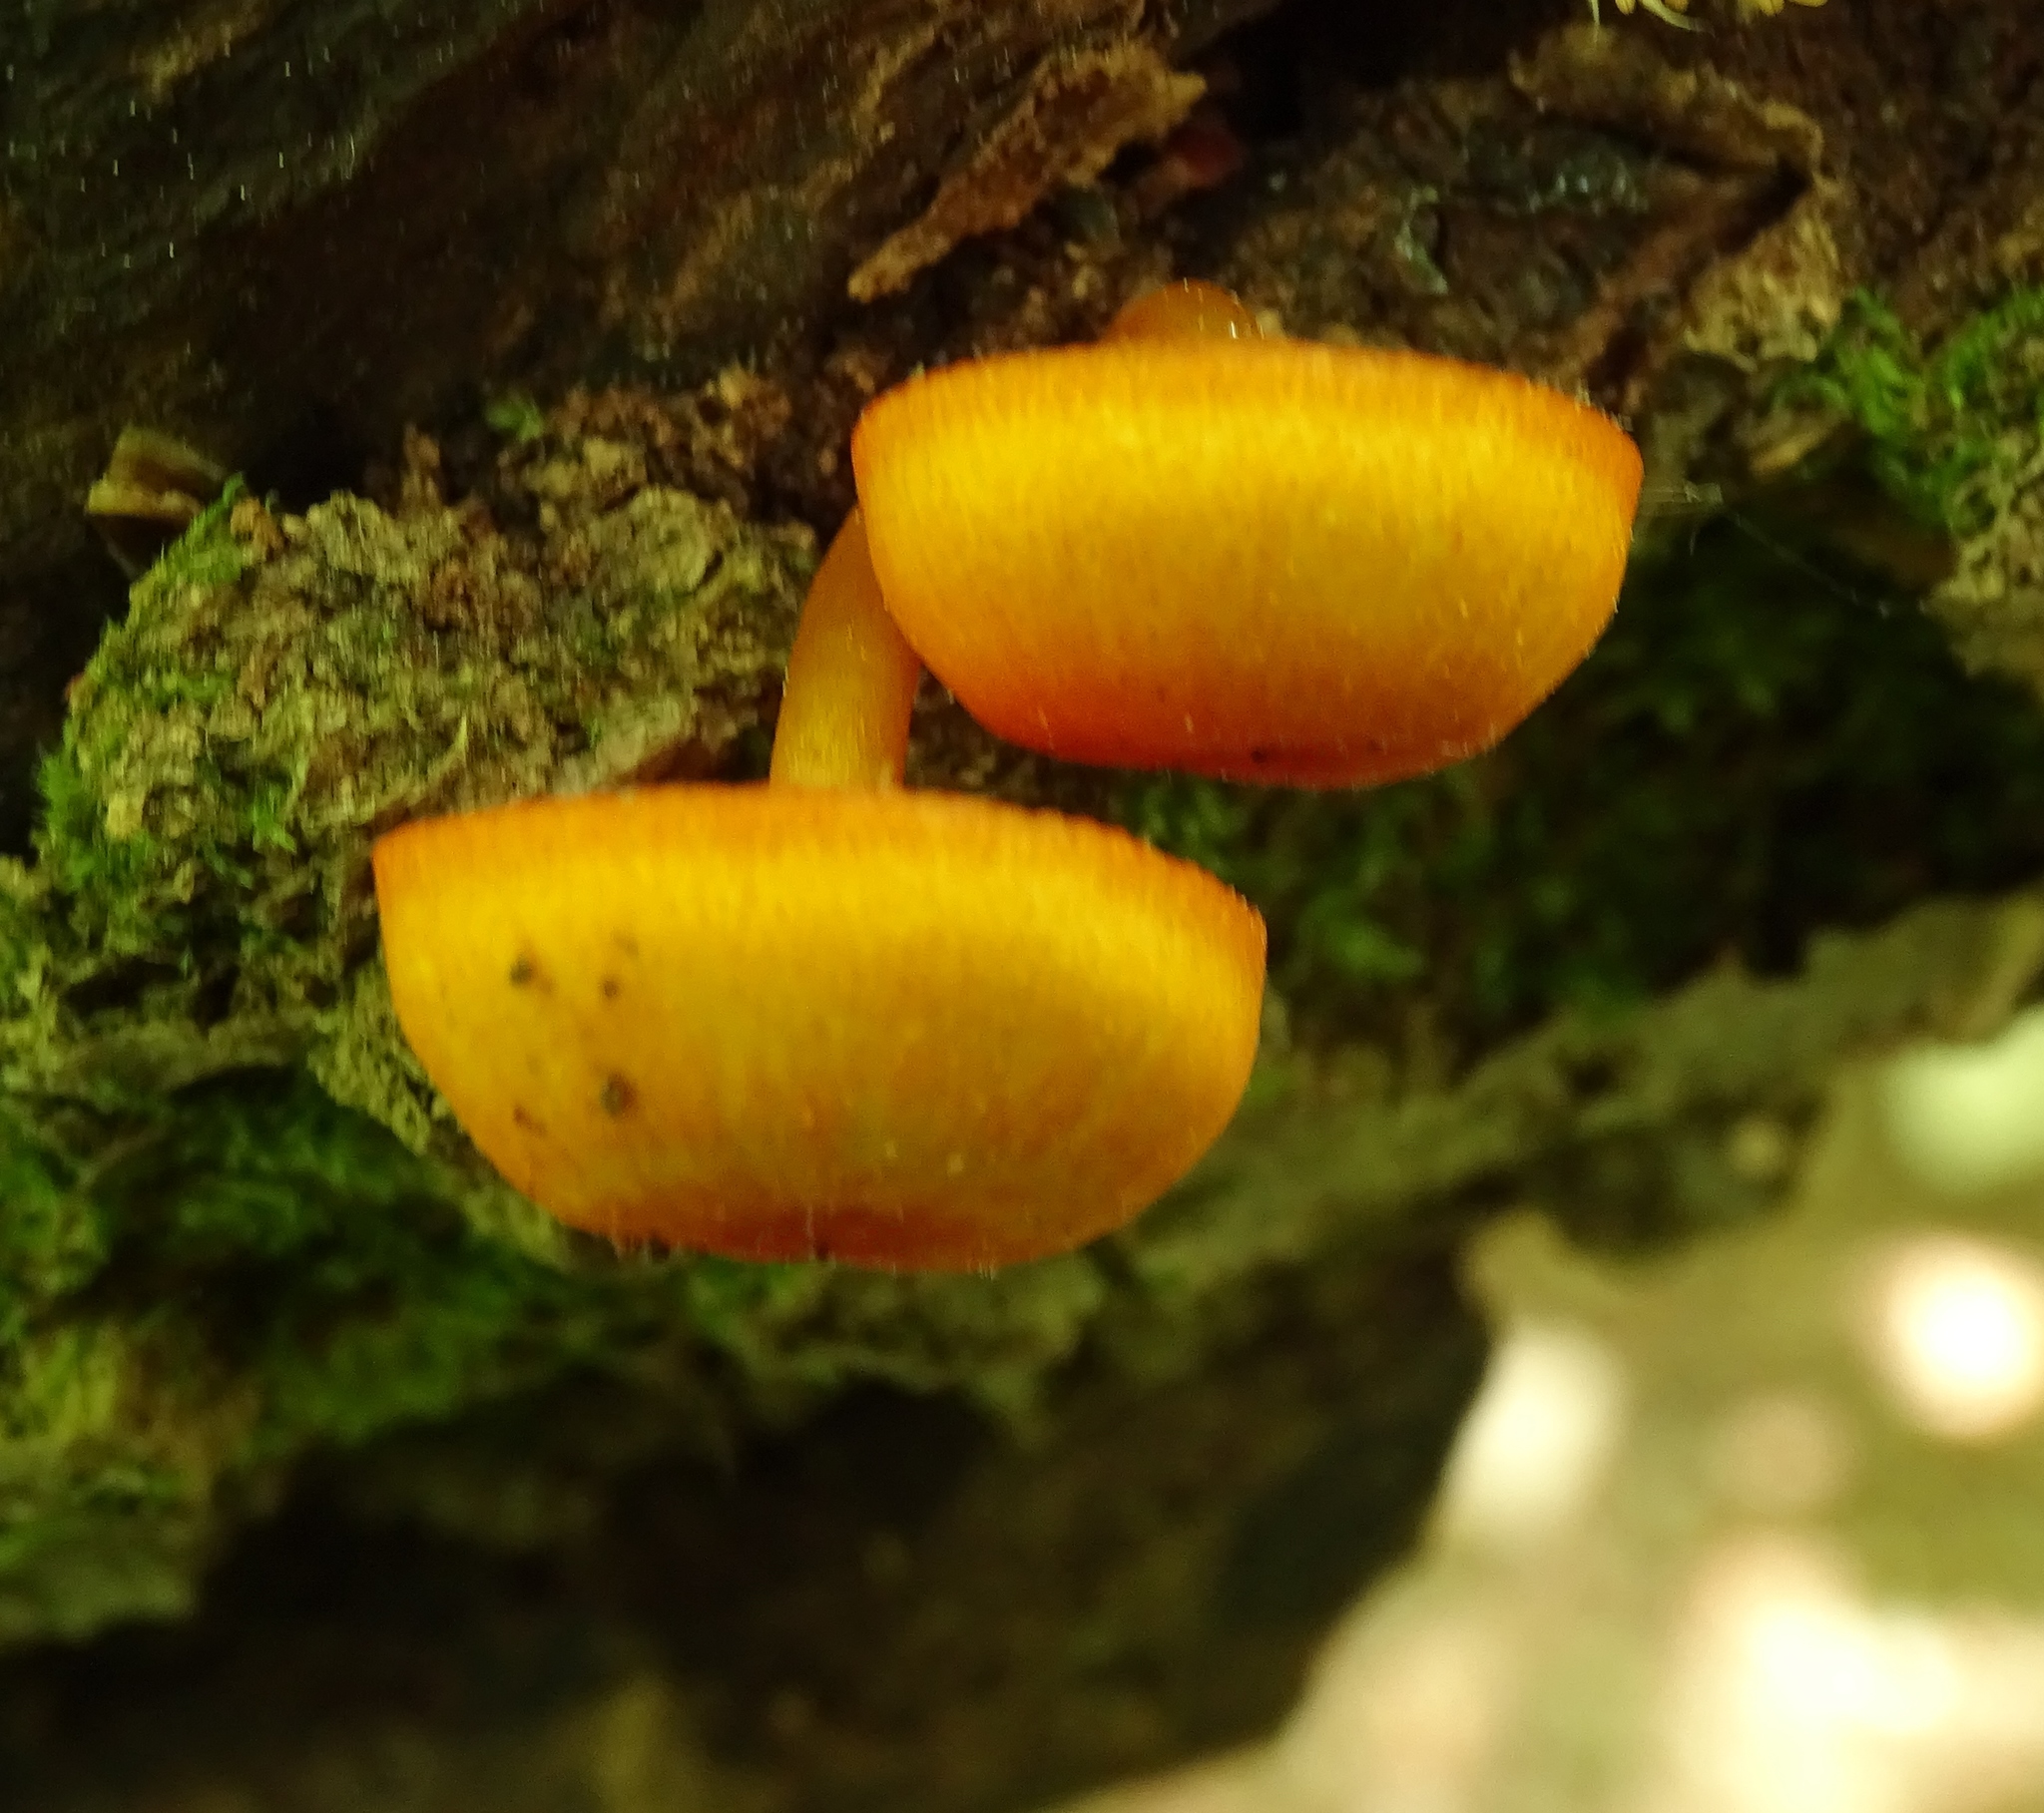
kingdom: Fungi
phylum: Basidiomycota
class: Agaricomycetes
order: Agaricales
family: Mycenaceae
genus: Mycena
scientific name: Mycena leaiana
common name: Orange mycena
